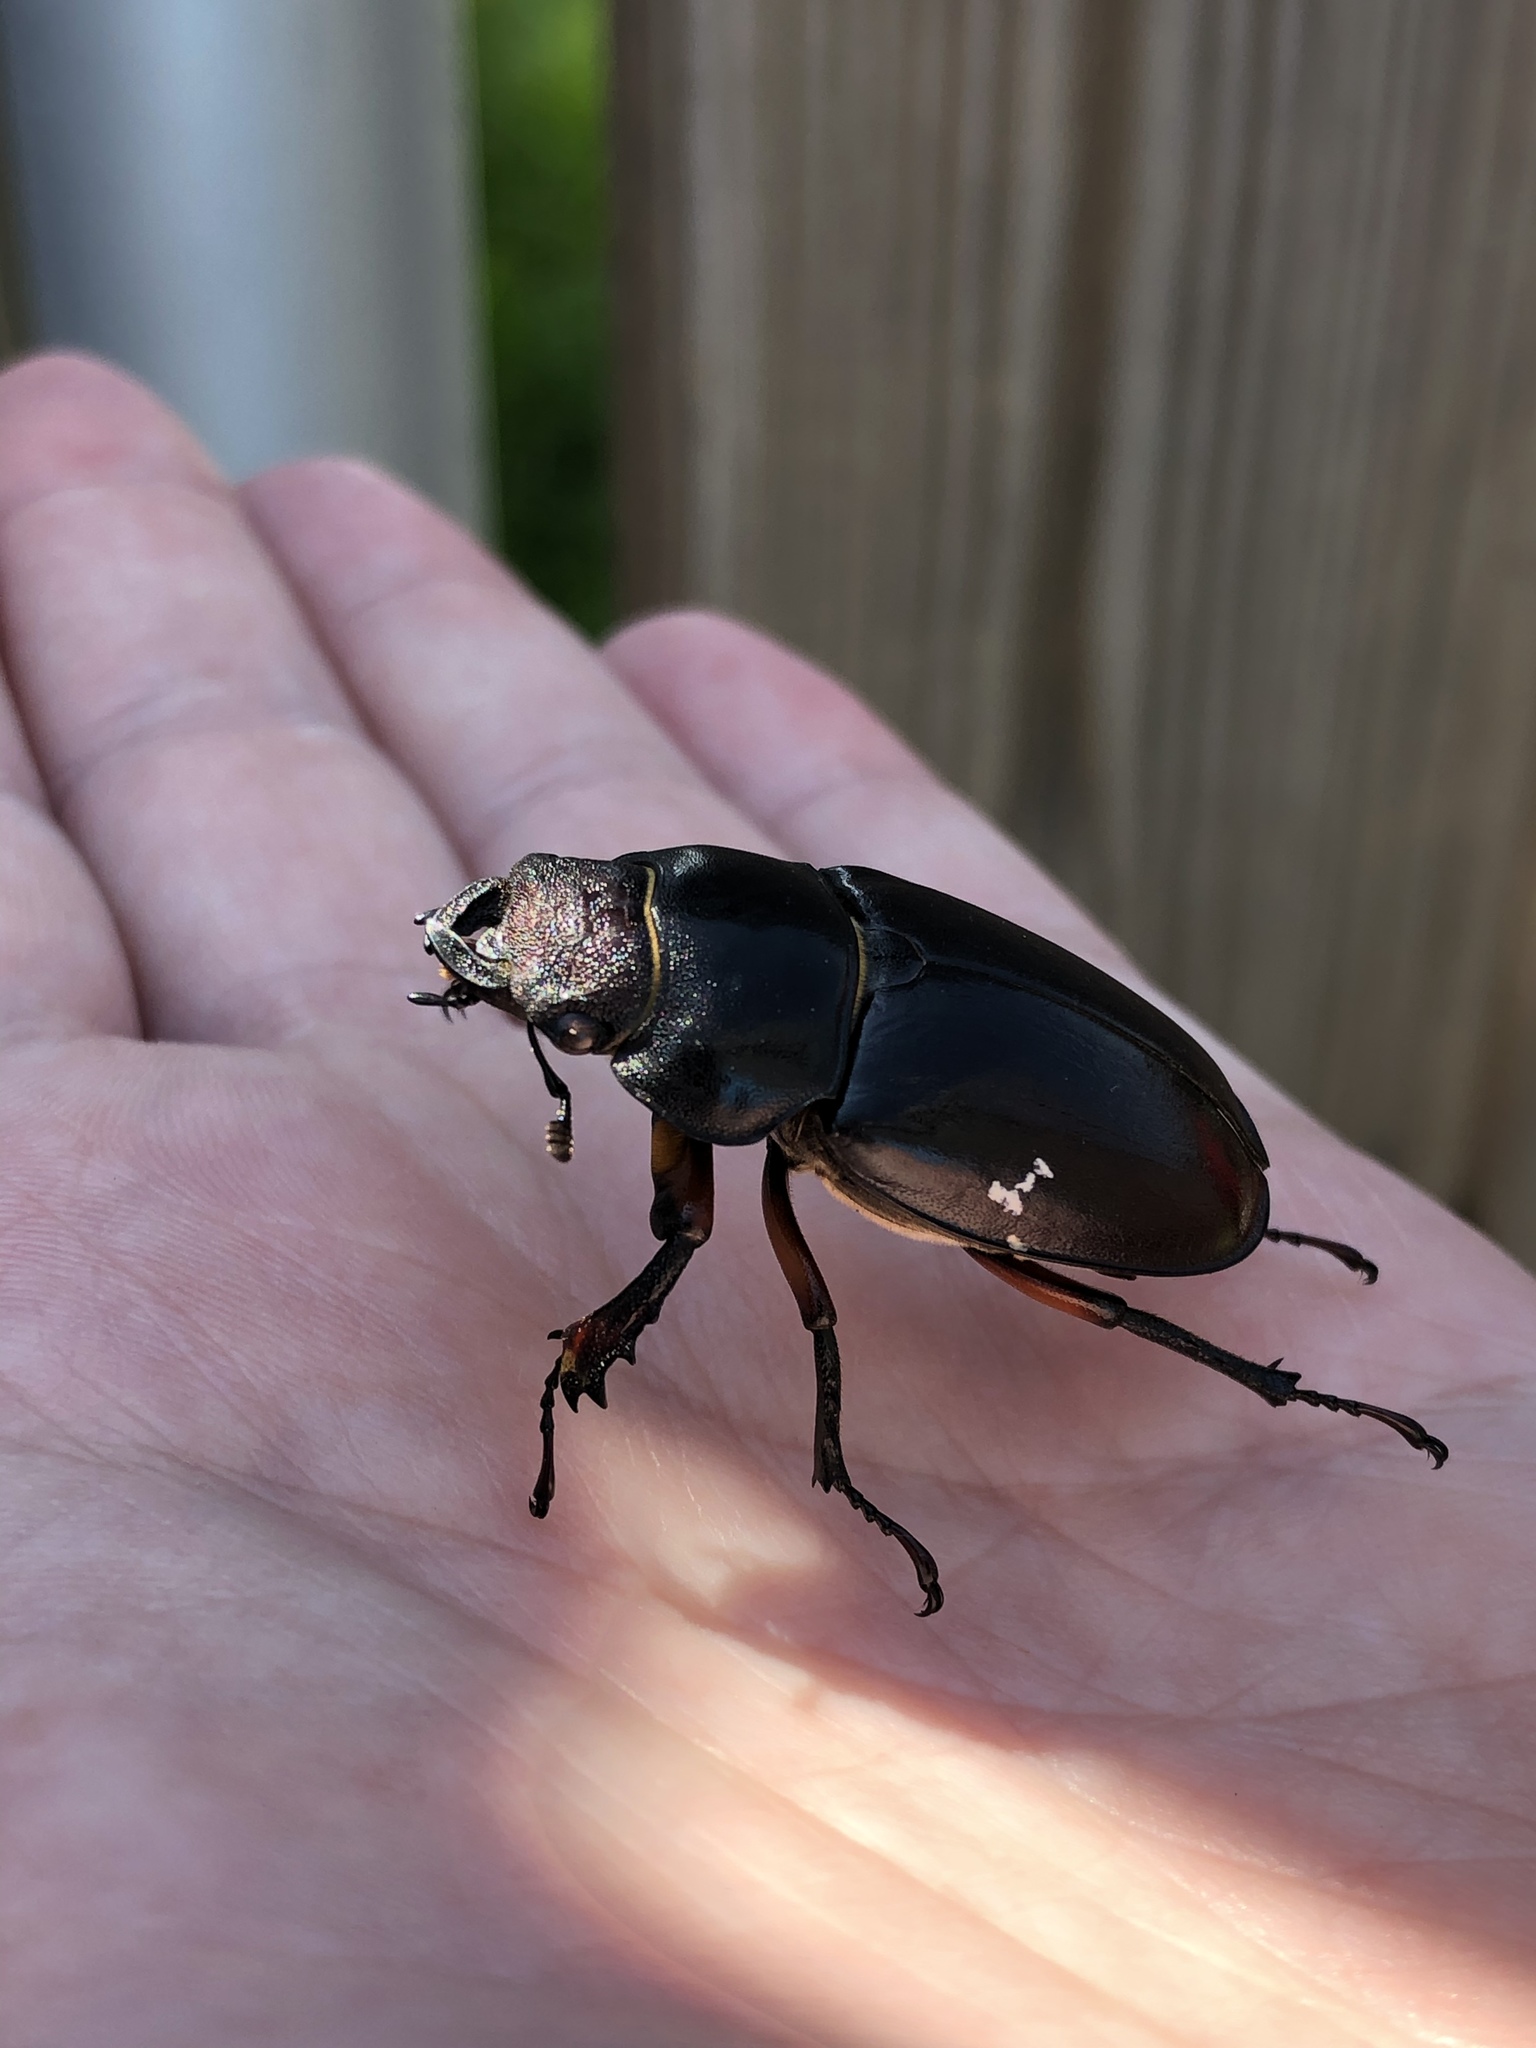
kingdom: Animalia
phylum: Arthropoda
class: Insecta
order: Coleoptera
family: Lucanidae
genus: Lucanus
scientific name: Lucanus capreolus
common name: Stag beetle
